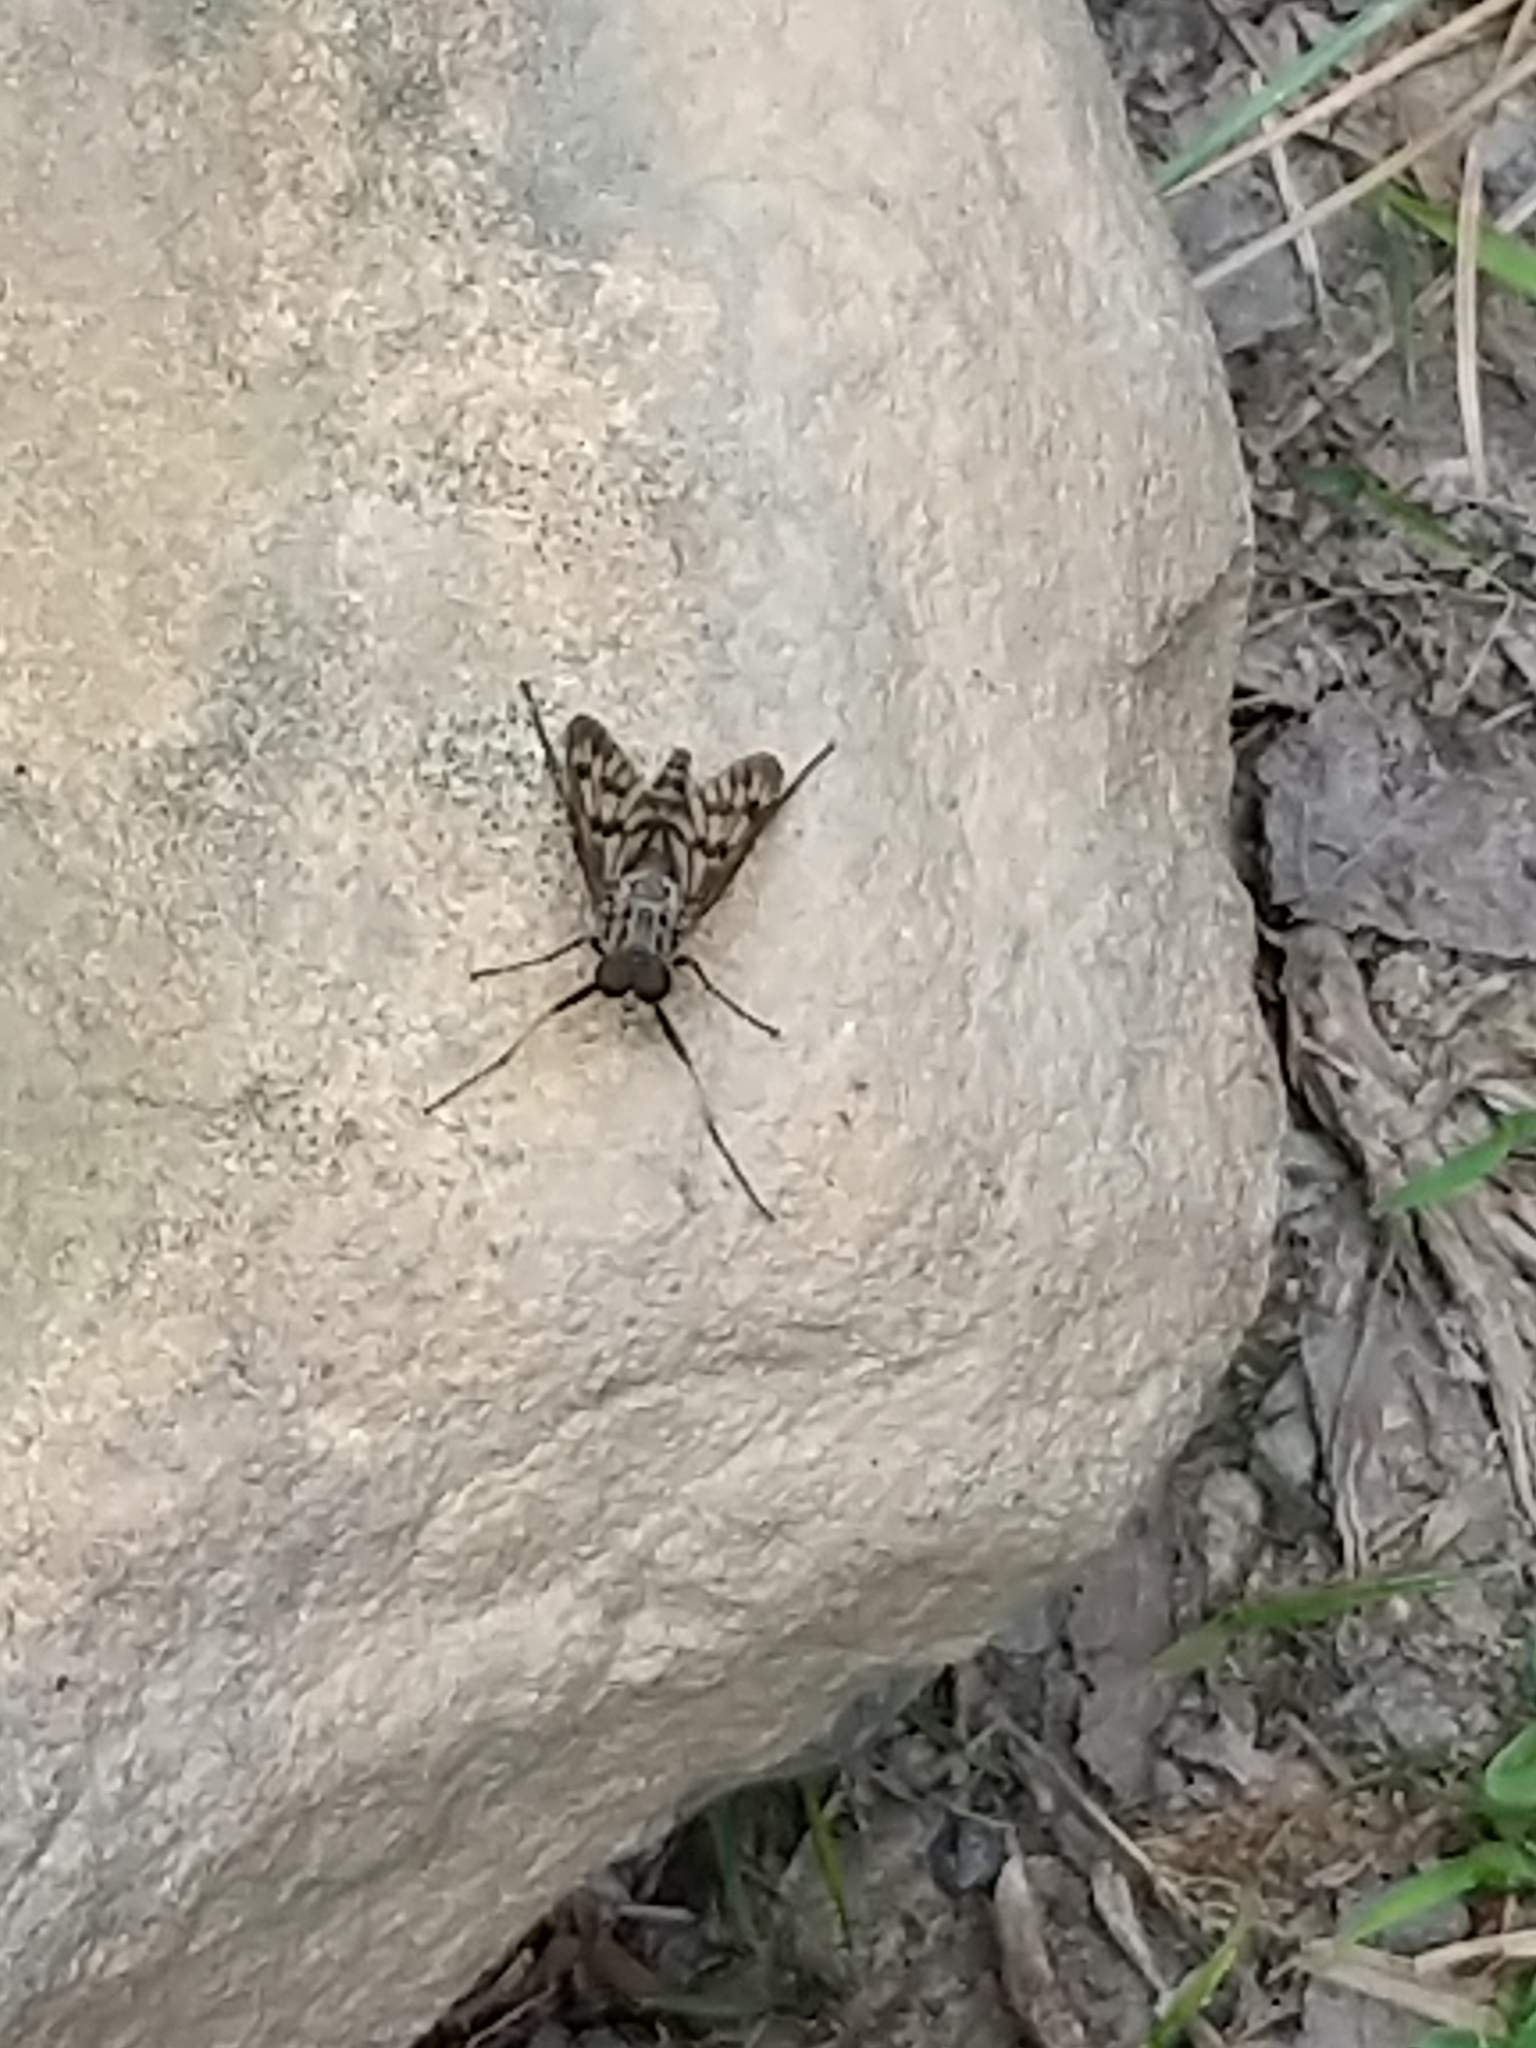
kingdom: Animalia
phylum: Arthropoda
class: Insecta
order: Diptera
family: Rhagionidae
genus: Rhagio
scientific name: Rhagio mystaceus
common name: Common snipe fly
